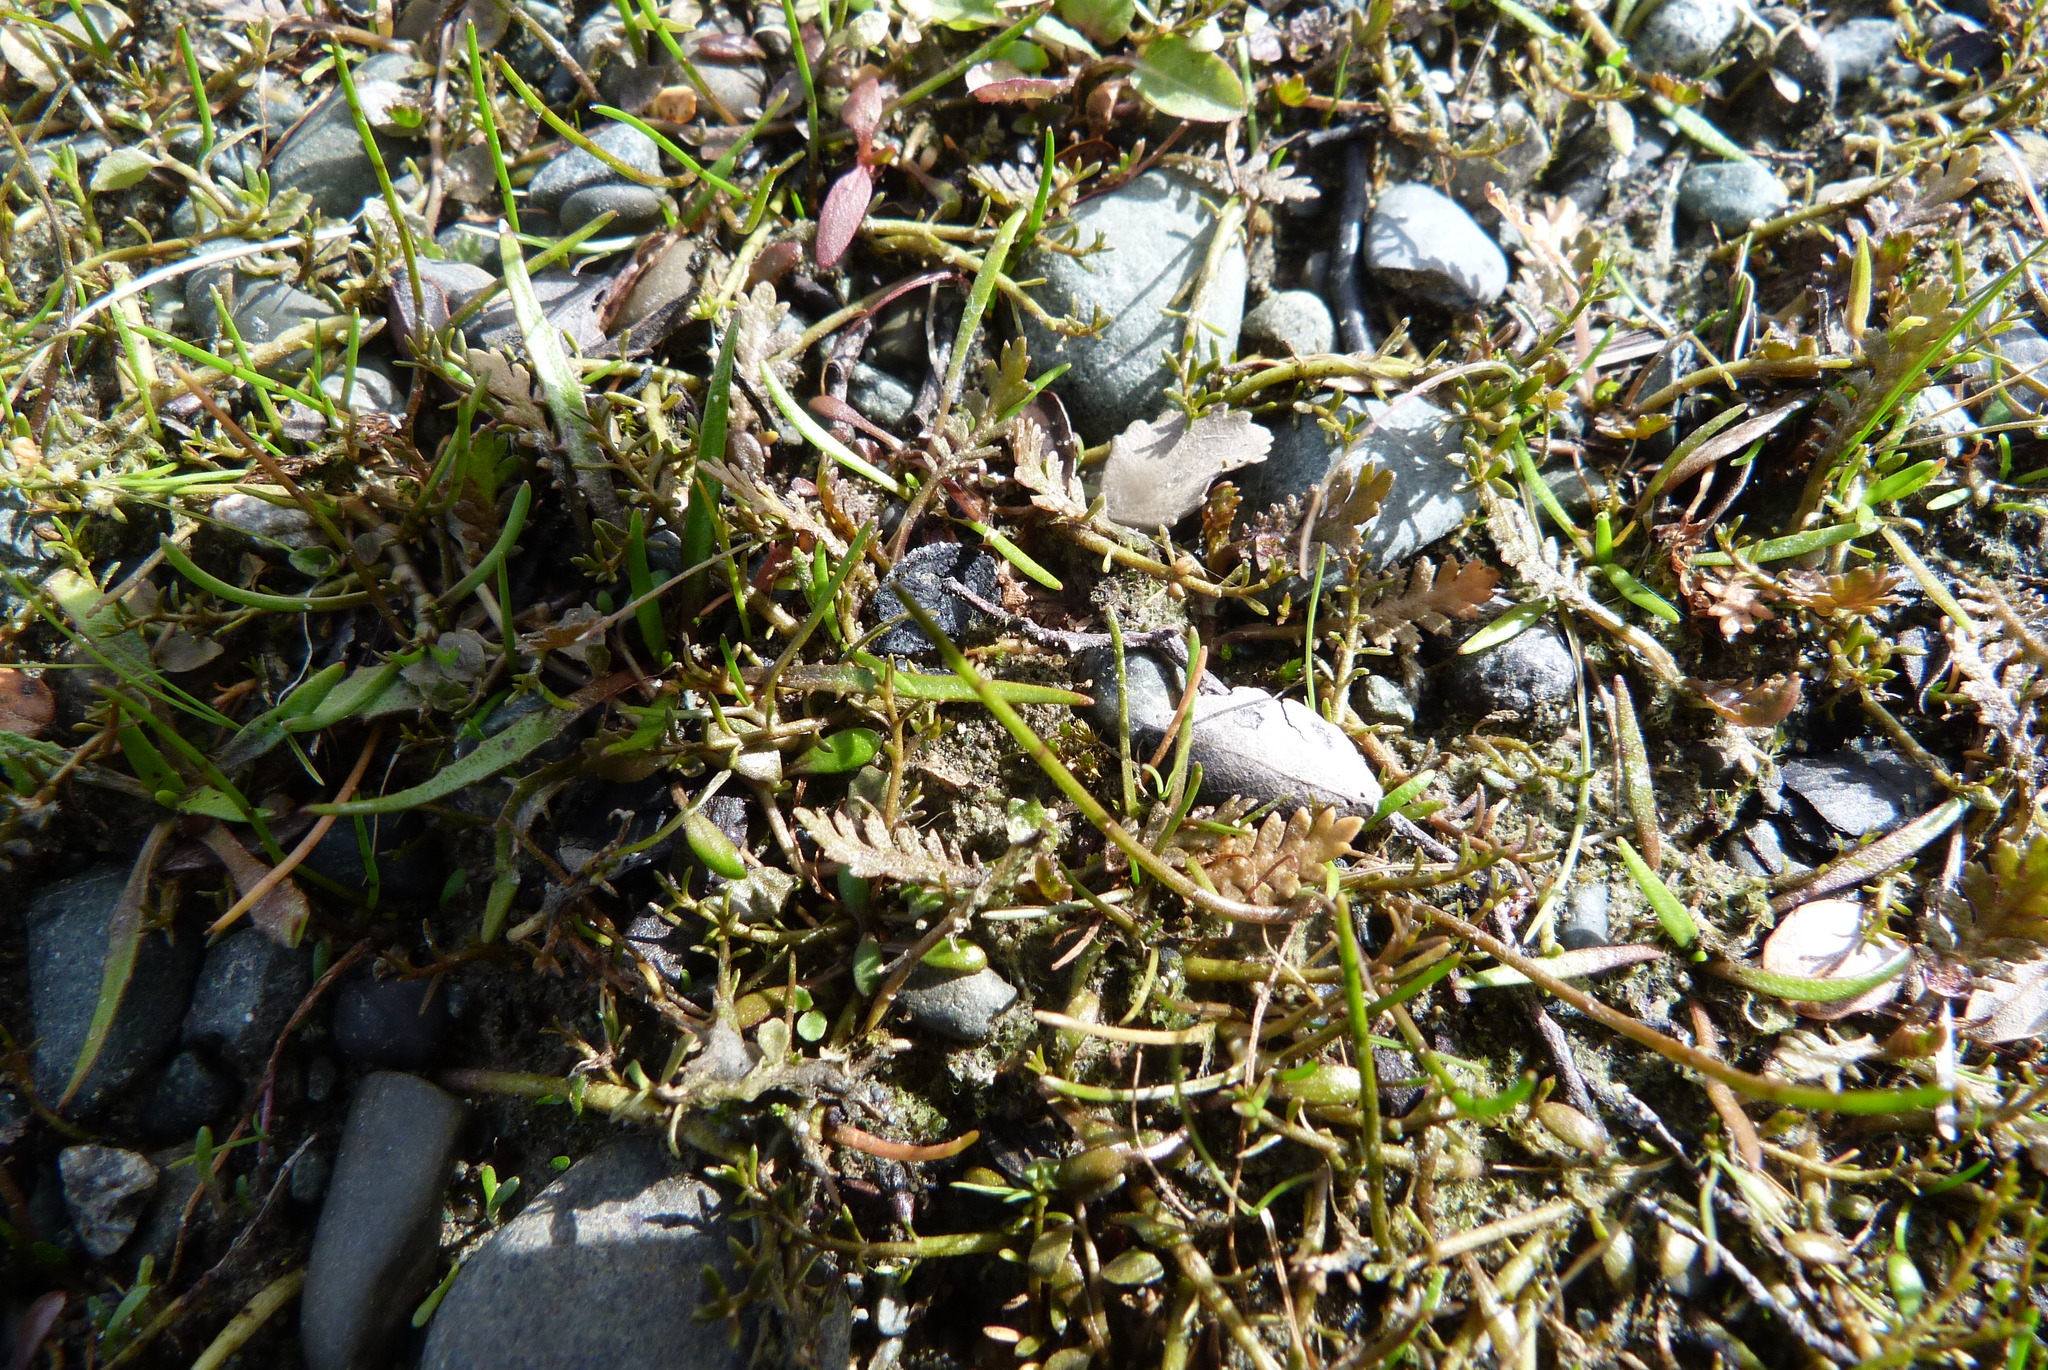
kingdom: Plantae
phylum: Tracheophyta
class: Magnoliopsida
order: Apiales
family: Apiaceae
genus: Lilaeopsis
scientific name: Lilaeopsis ruthiana
